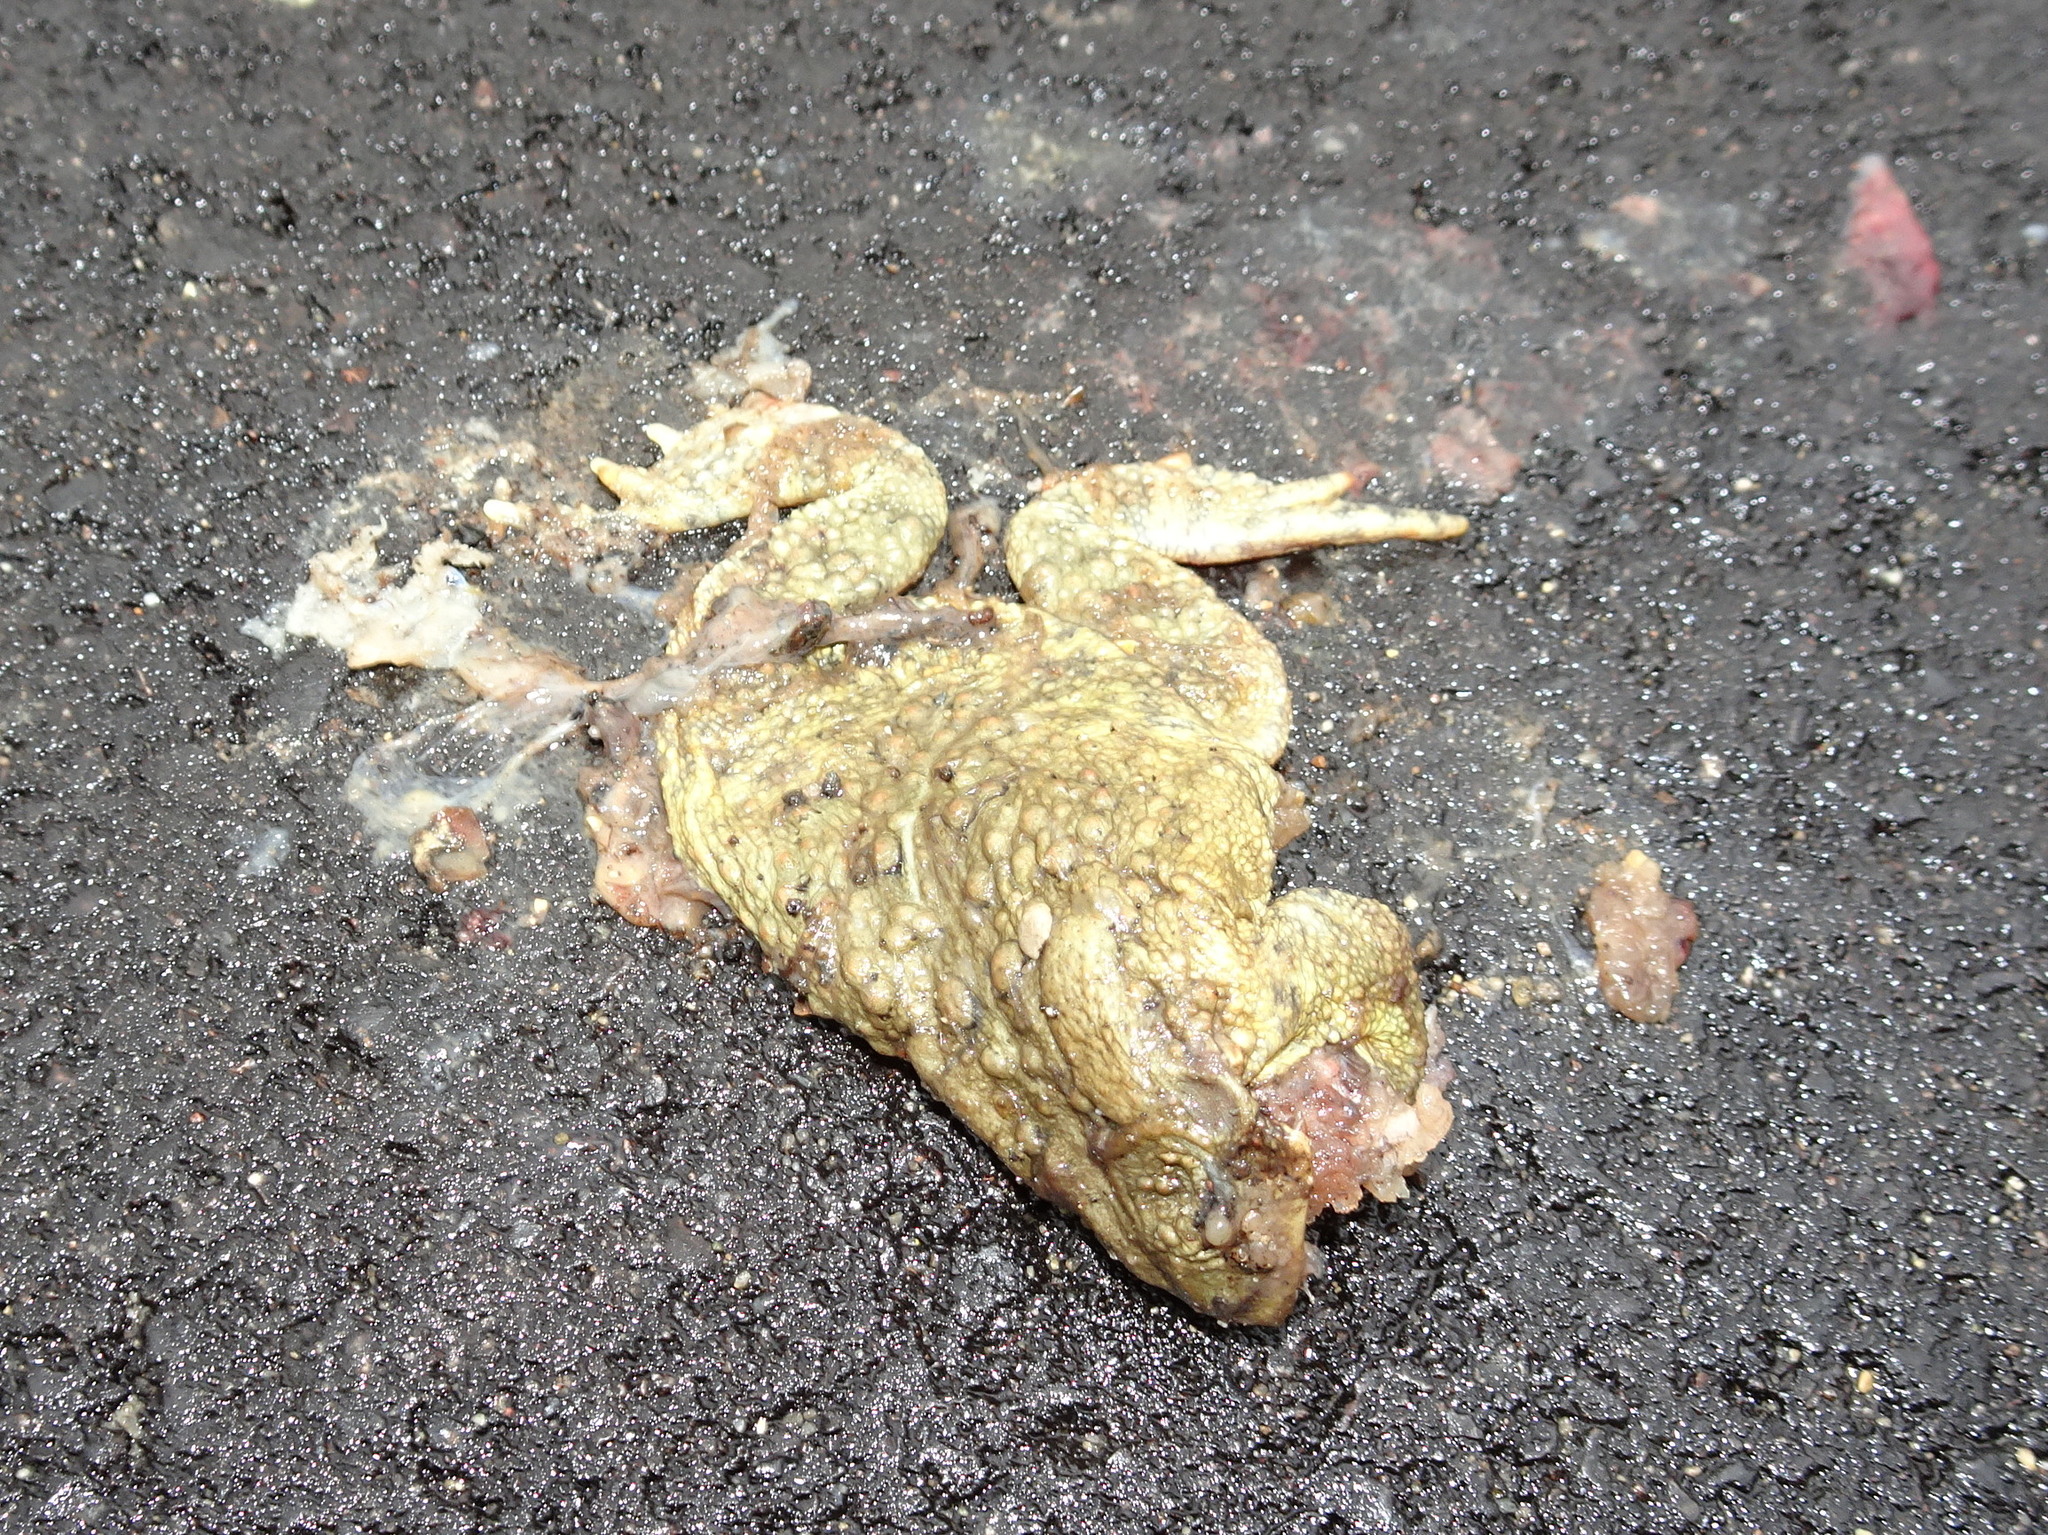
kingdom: Animalia
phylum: Chordata
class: Amphibia
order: Anura
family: Bufonidae
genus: Anaxyrus
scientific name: Anaxyrus americanus
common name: American toad
